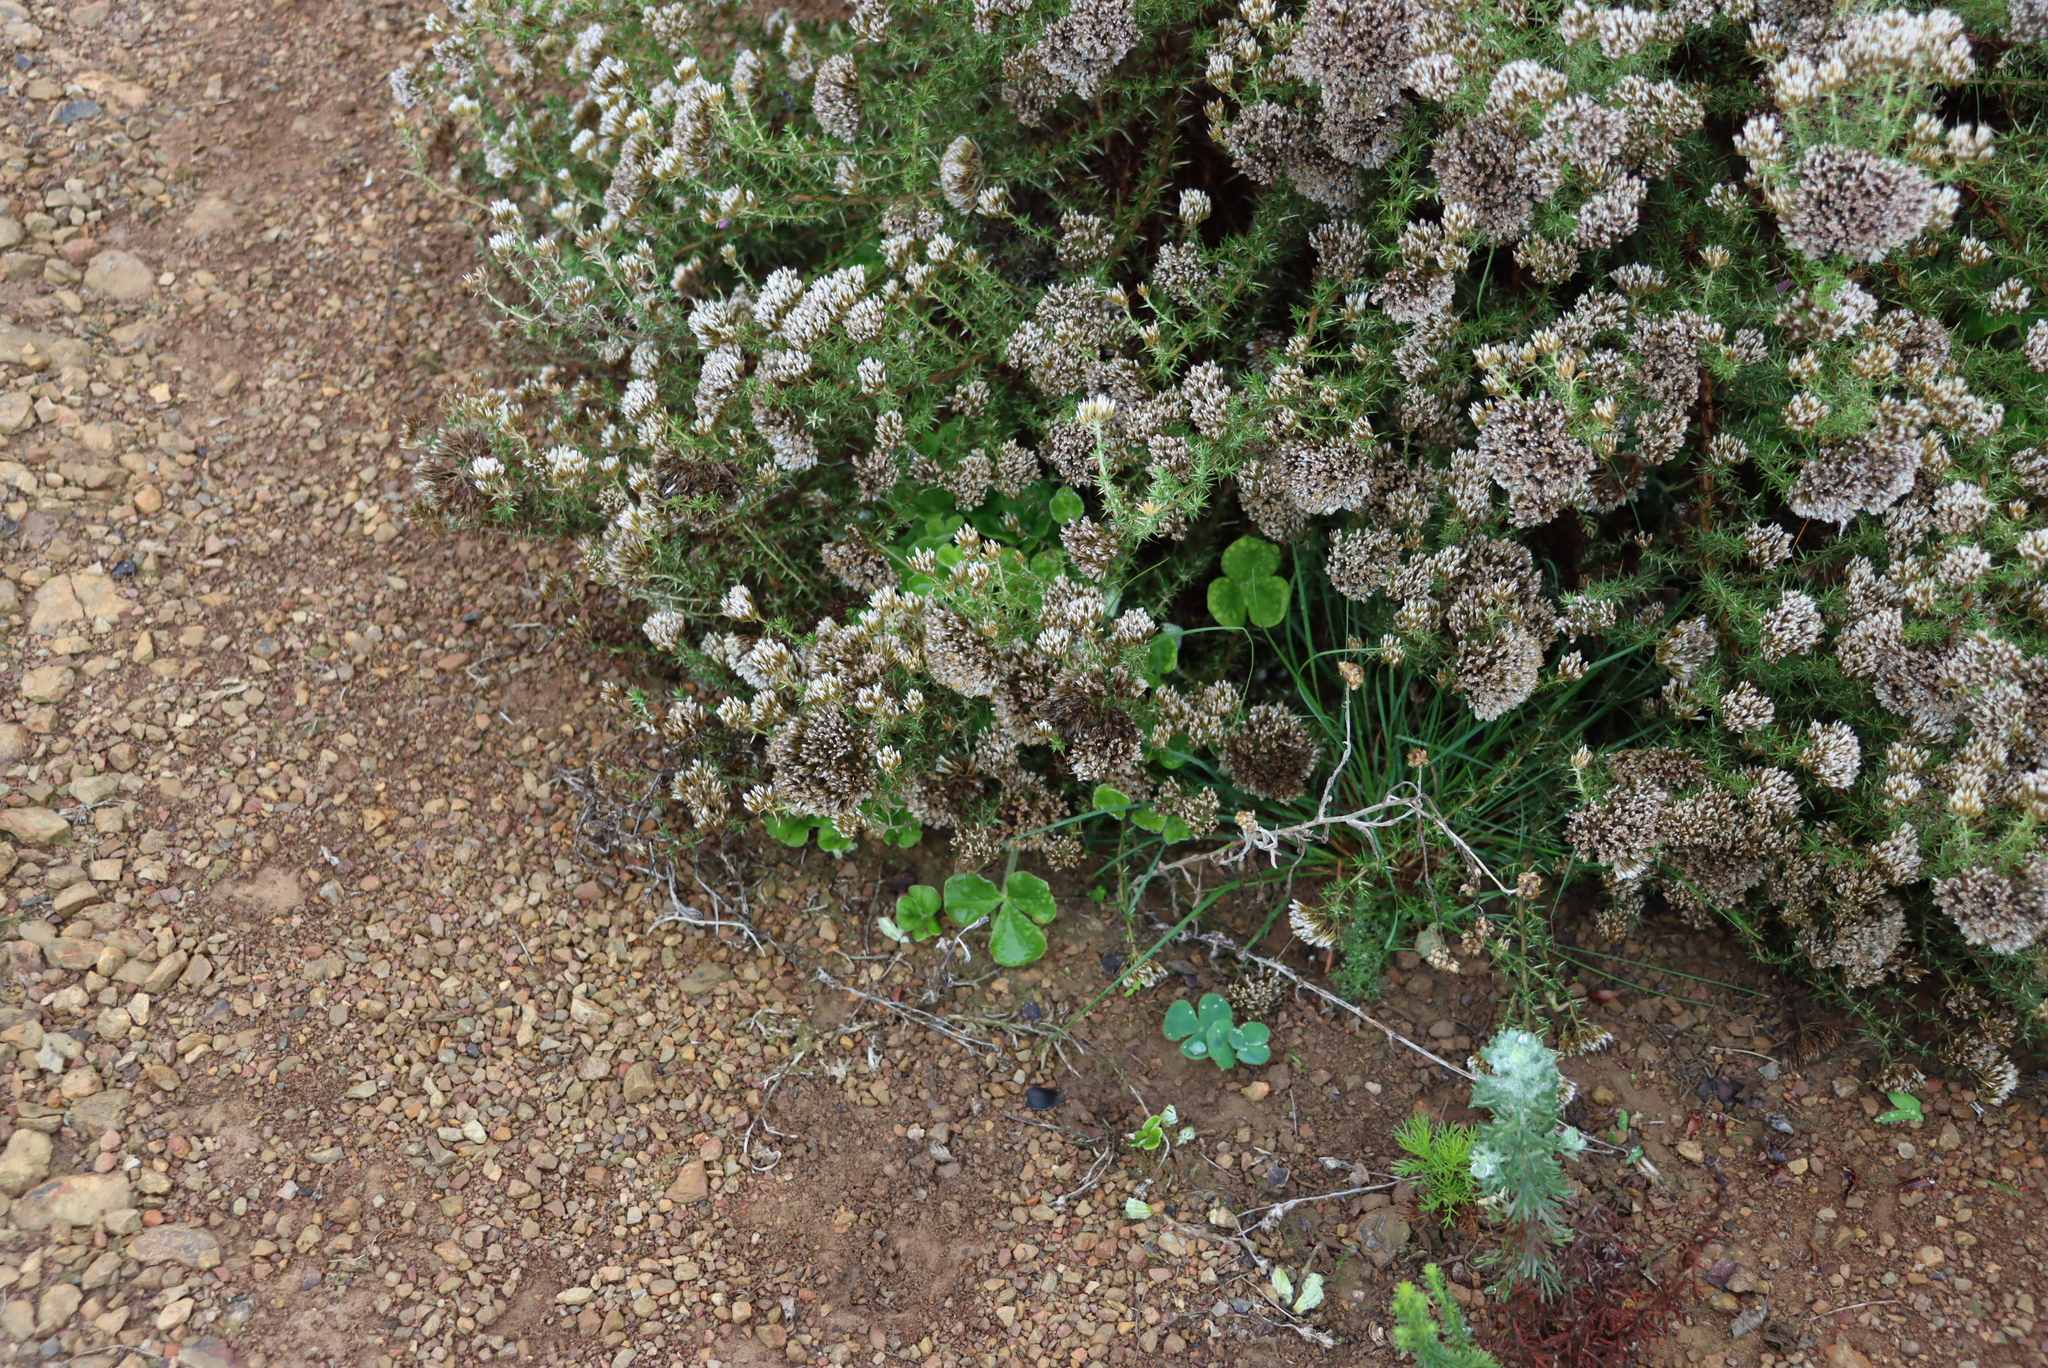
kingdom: Plantae
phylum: Tracheophyta
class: Magnoliopsida
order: Oxalidales
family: Oxalidaceae
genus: Oxalis
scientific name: Oxalis truncatula
